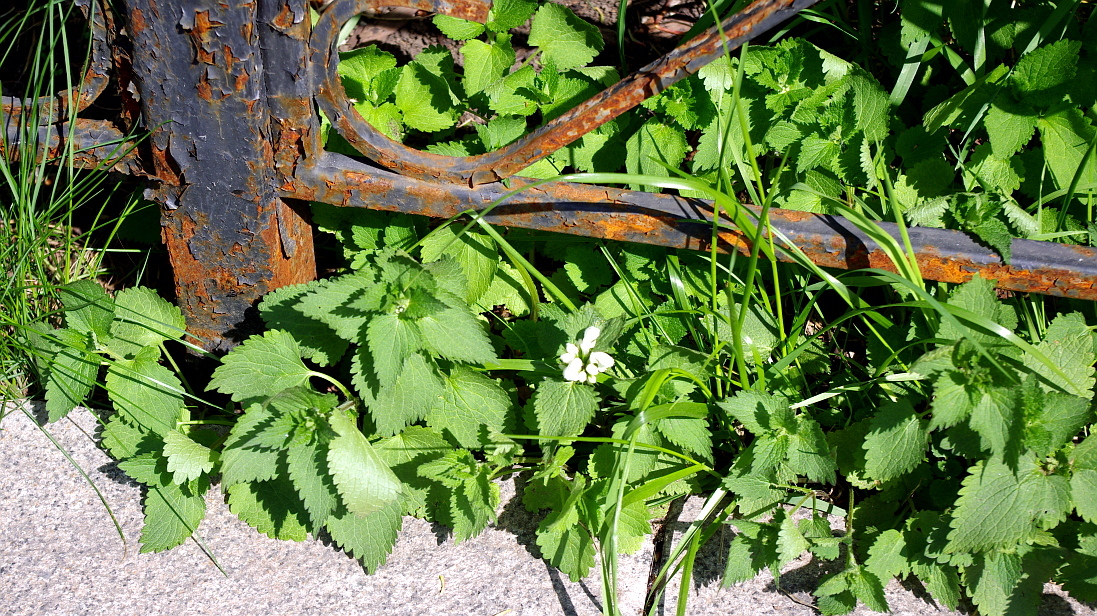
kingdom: Plantae
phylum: Tracheophyta
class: Magnoliopsida
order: Lamiales
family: Lamiaceae
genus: Lamium
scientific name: Lamium album
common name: White dead-nettle
